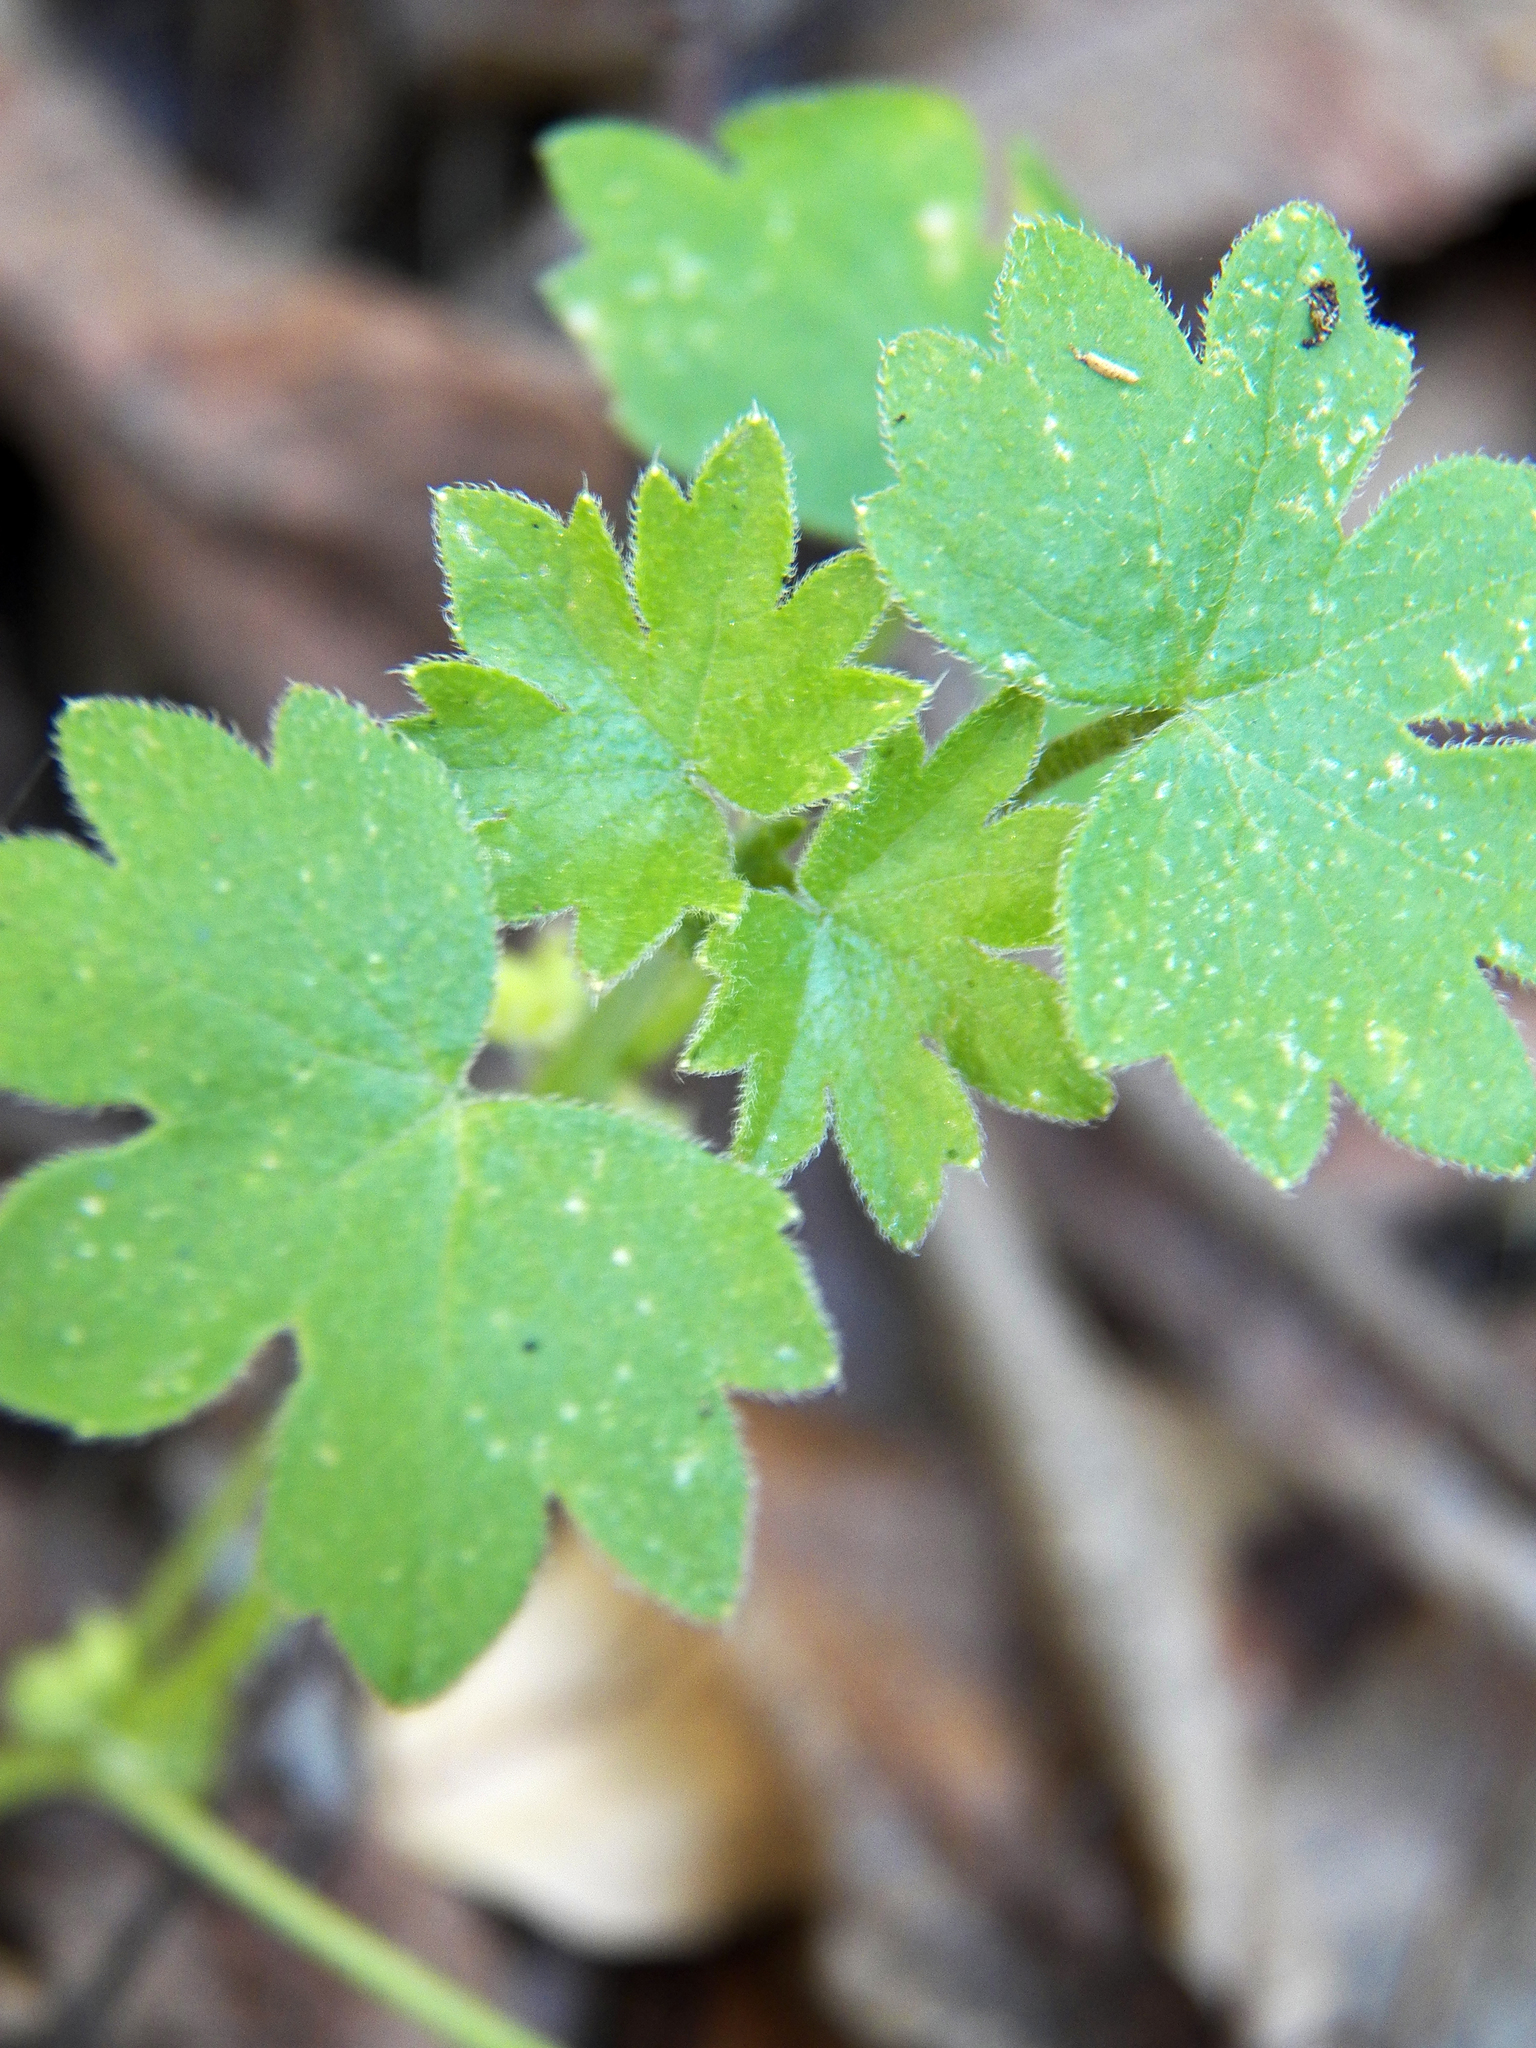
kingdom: Plantae
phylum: Tracheophyta
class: Magnoliopsida
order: Apiales
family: Apiaceae
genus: Bowlesia
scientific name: Bowlesia incana
